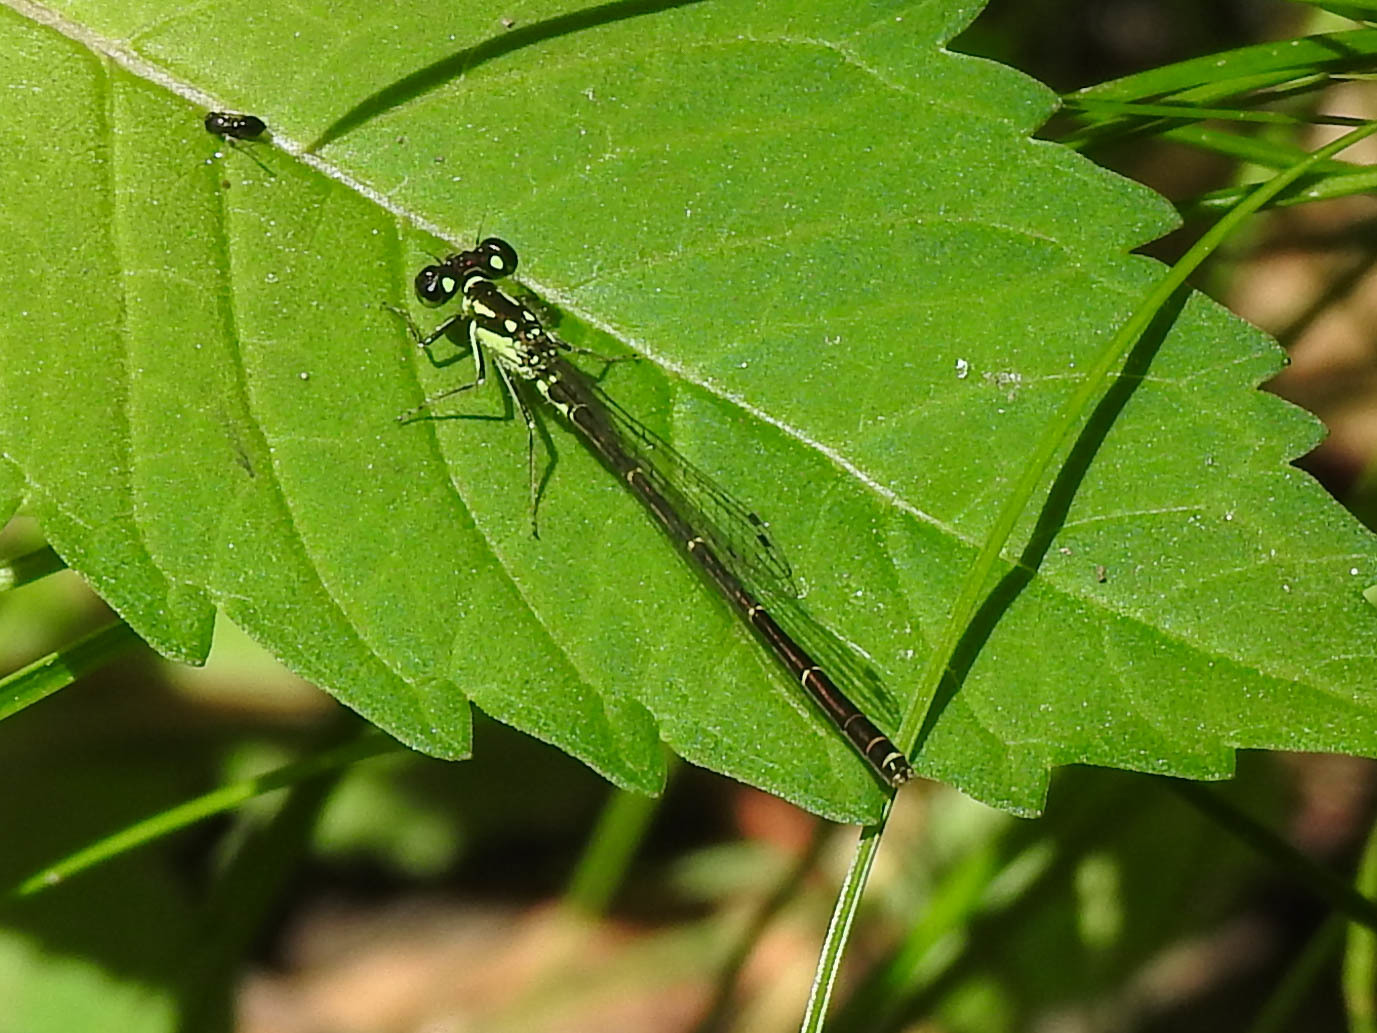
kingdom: Animalia
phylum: Arthropoda
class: Insecta
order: Odonata
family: Coenagrionidae
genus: Ischnura
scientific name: Ischnura posita
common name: Fragile forktail
